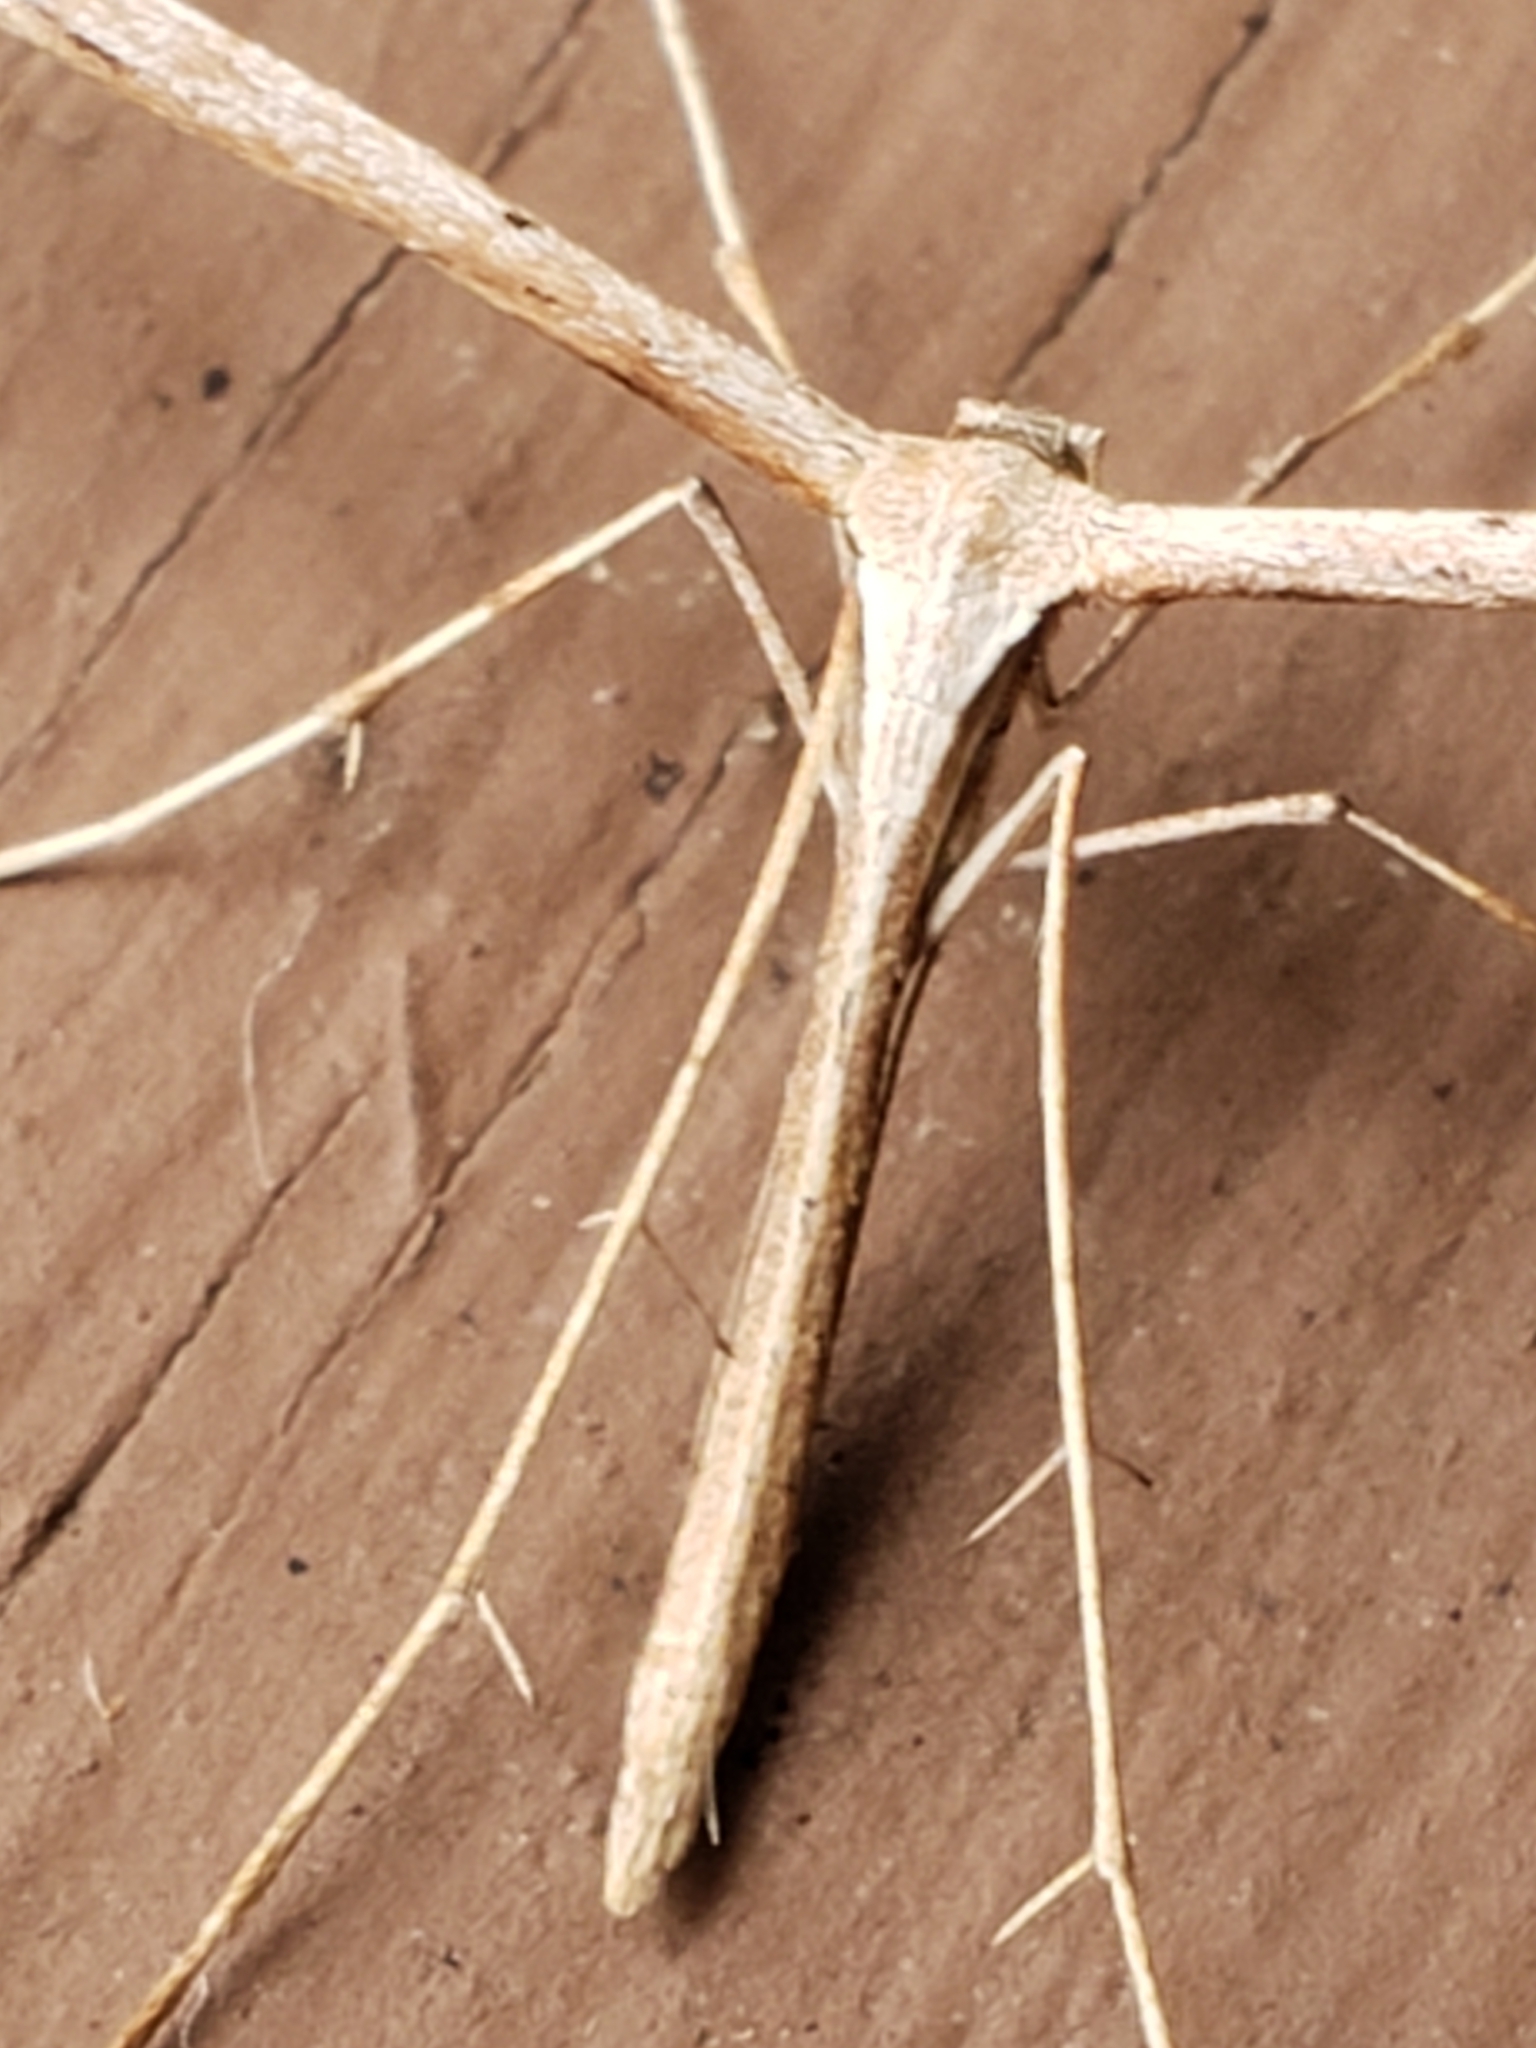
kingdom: Animalia
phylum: Arthropoda
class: Insecta
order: Lepidoptera
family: Pterophoridae
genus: Emmelina
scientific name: Emmelina monodactyla
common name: Common plume
